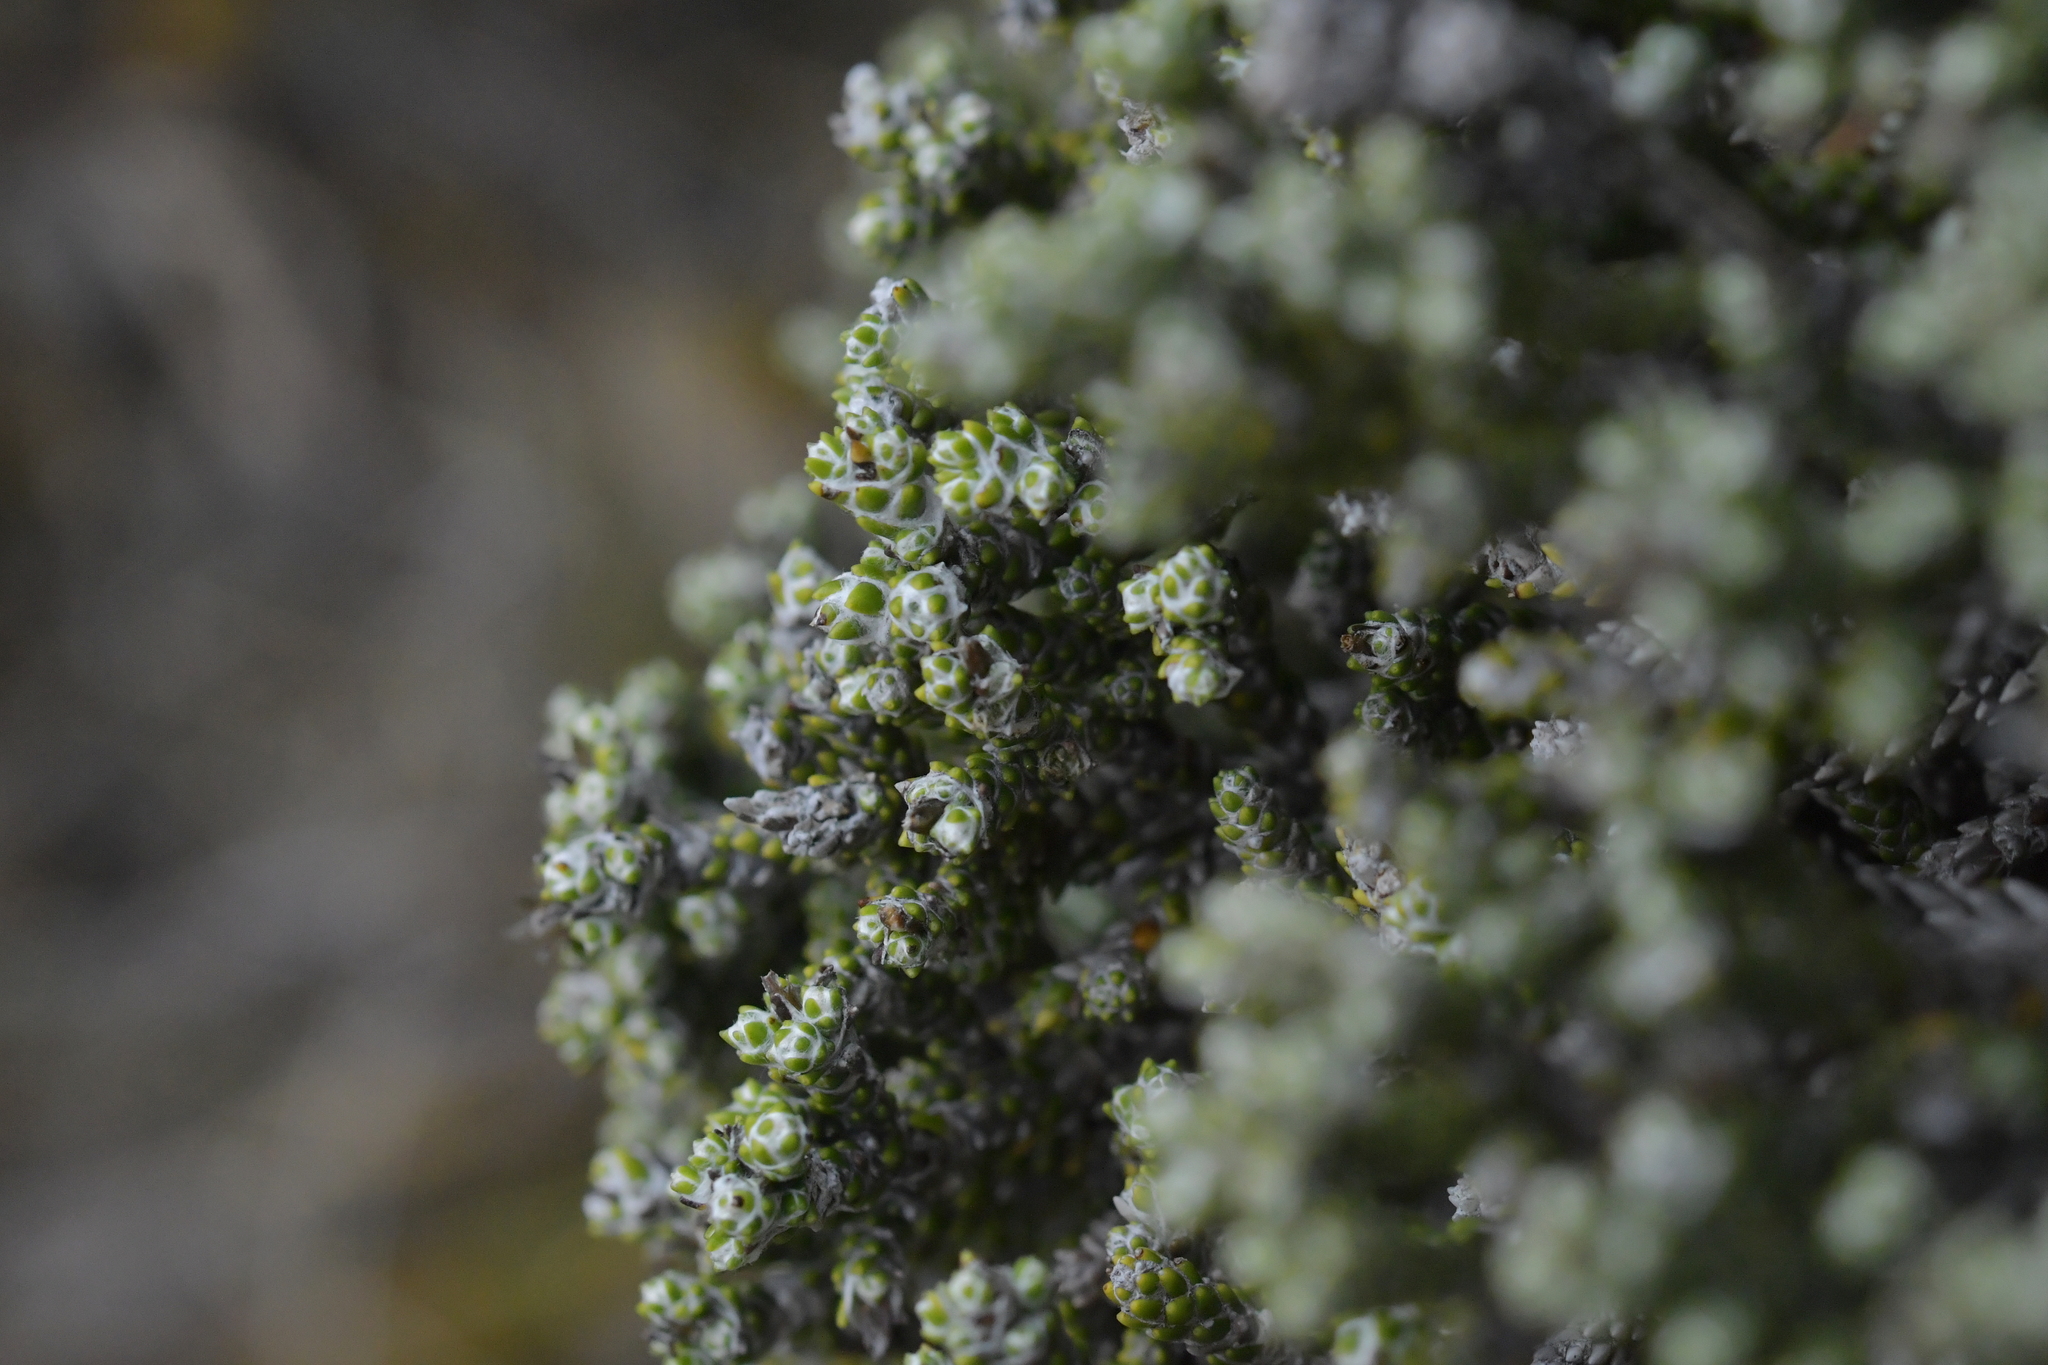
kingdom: Plantae
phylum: Tracheophyta
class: Magnoliopsida
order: Asterales
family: Asteraceae
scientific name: Asteraceae
